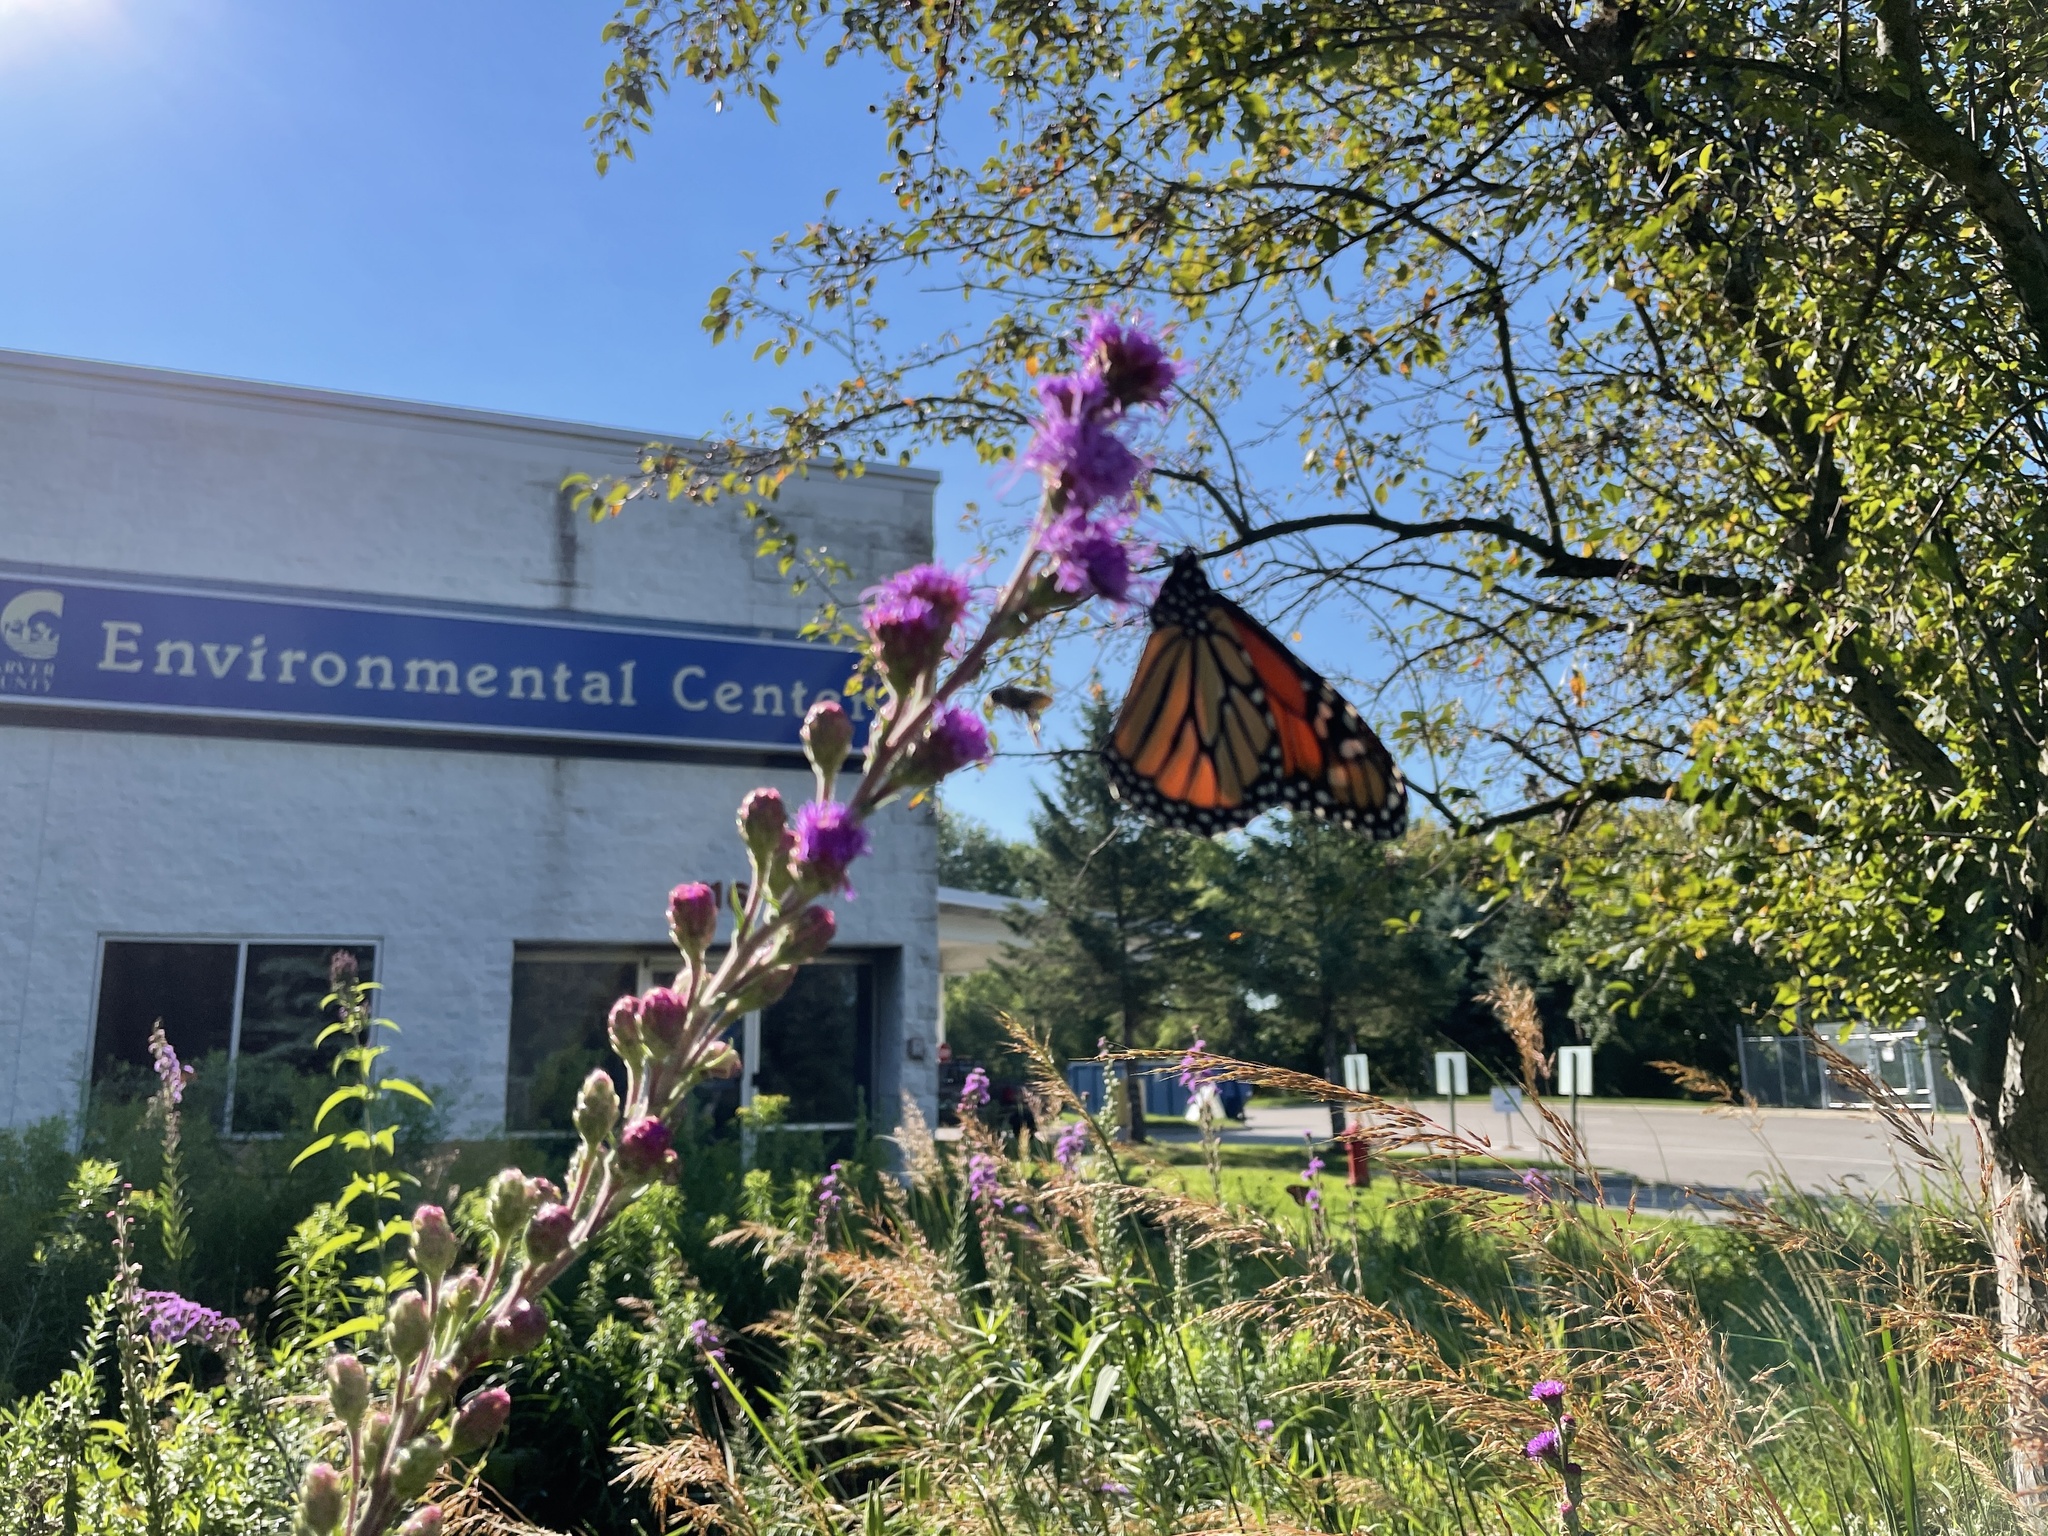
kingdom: Animalia
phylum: Arthropoda
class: Insecta
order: Lepidoptera
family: Nymphalidae
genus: Danaus
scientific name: Danaus plexippus
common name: Monarch
